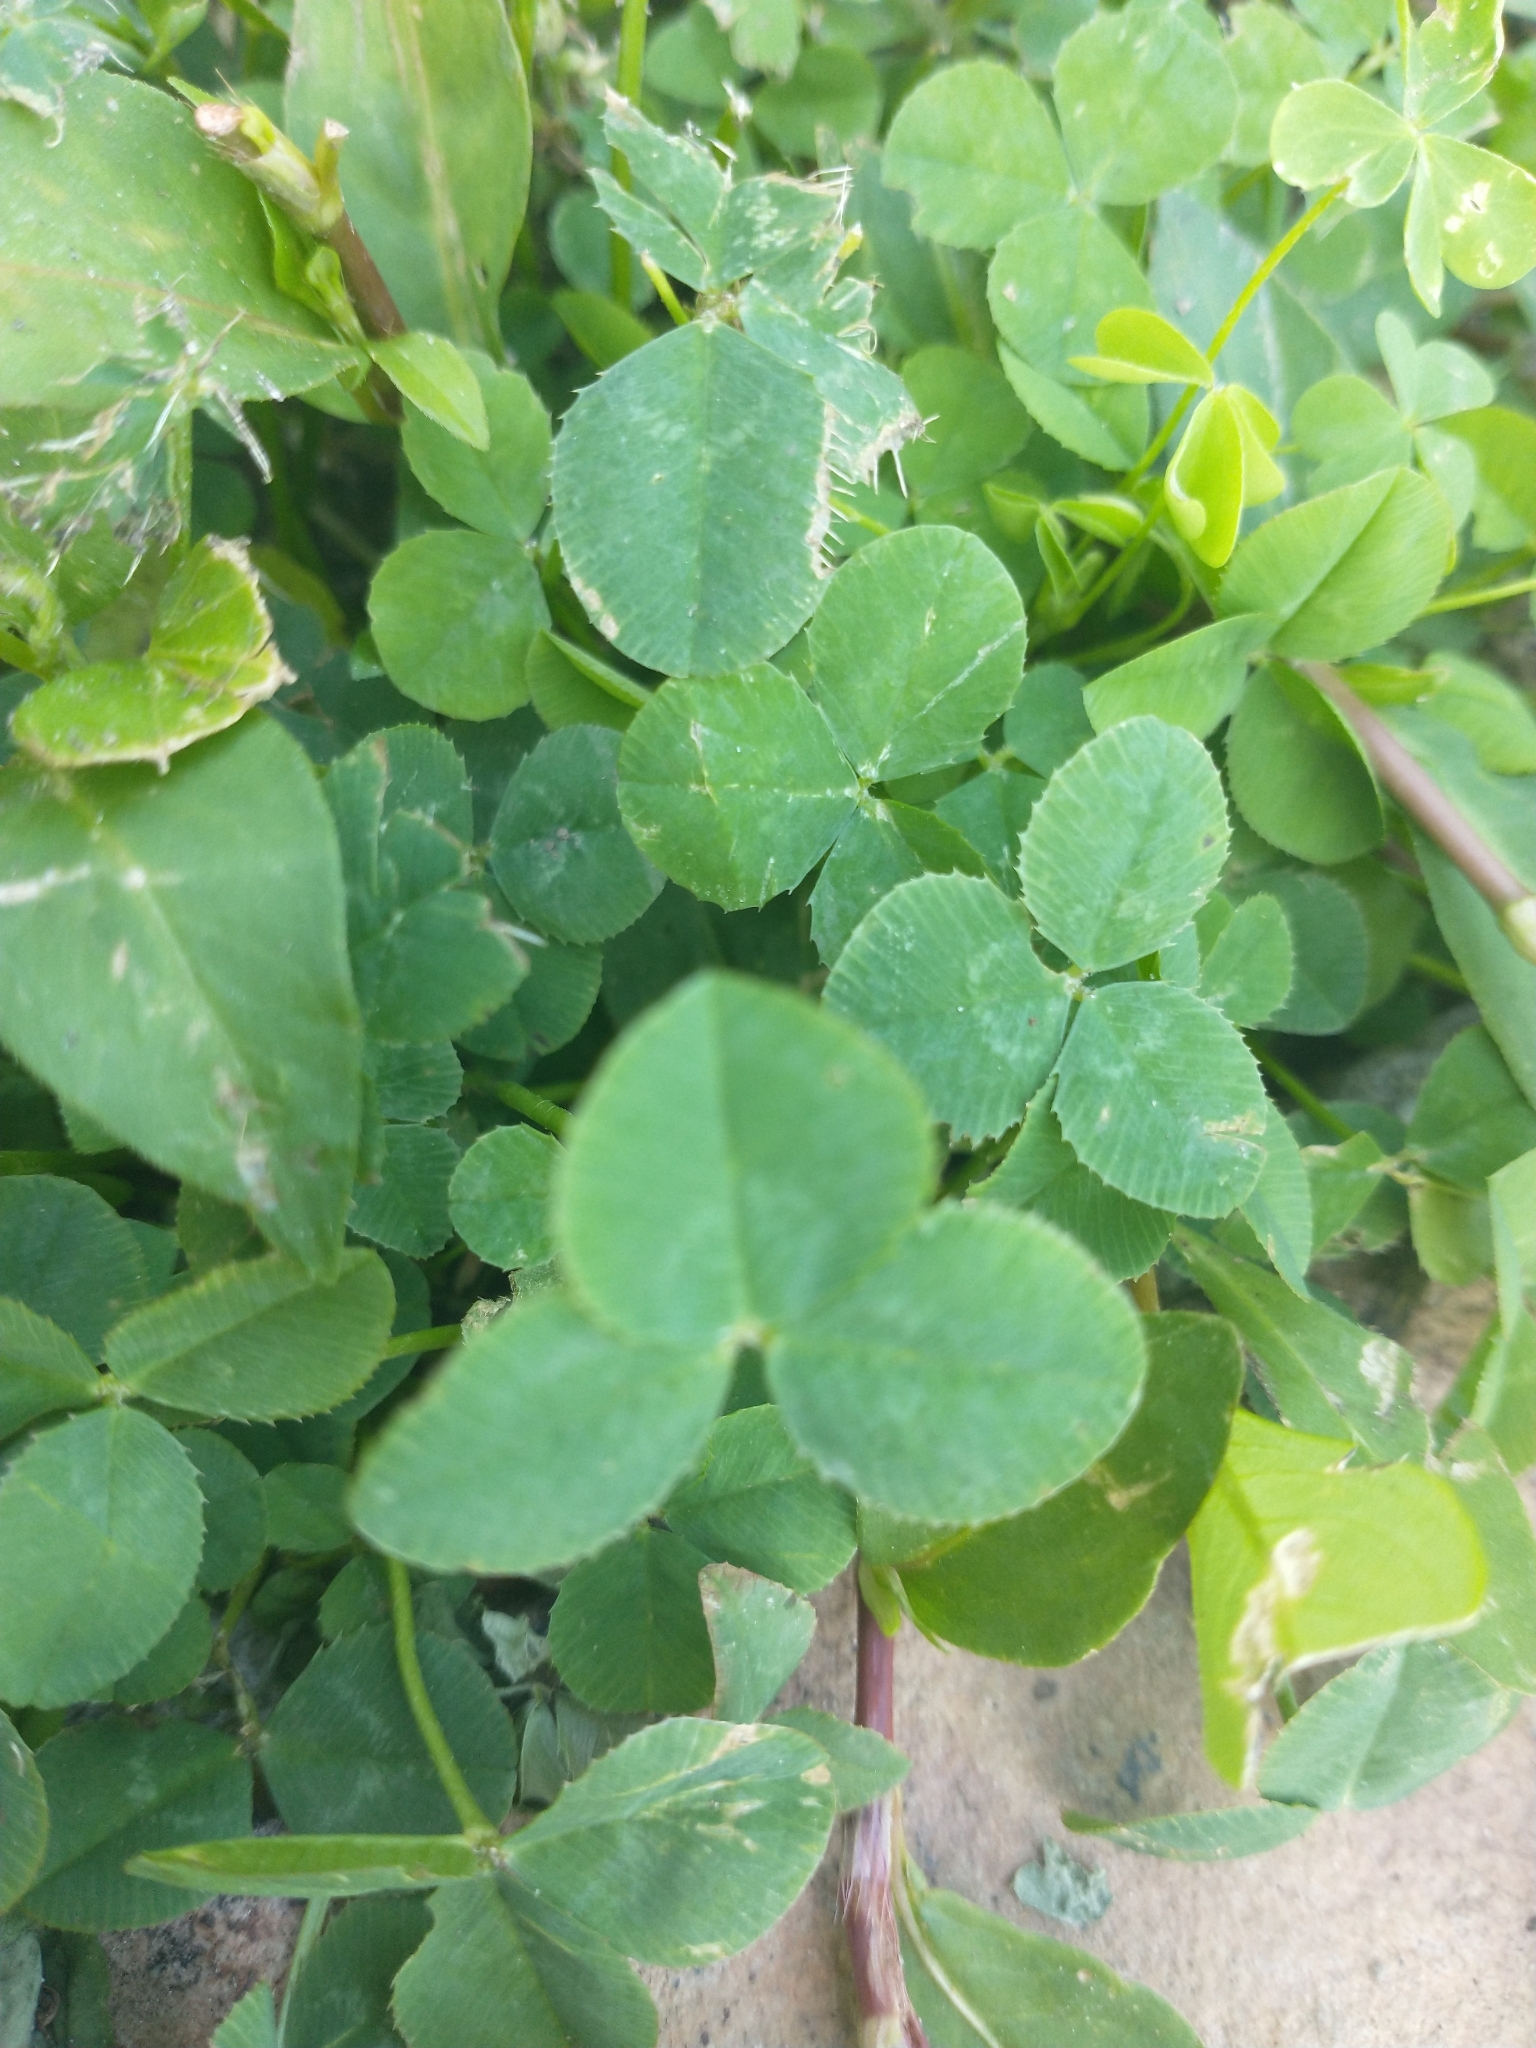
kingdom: Plantae
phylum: Tracheophyta
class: Magnoliopsida
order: Fabales
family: Fabaceae
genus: Trifolium
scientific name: Trifolium repens
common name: White clover
